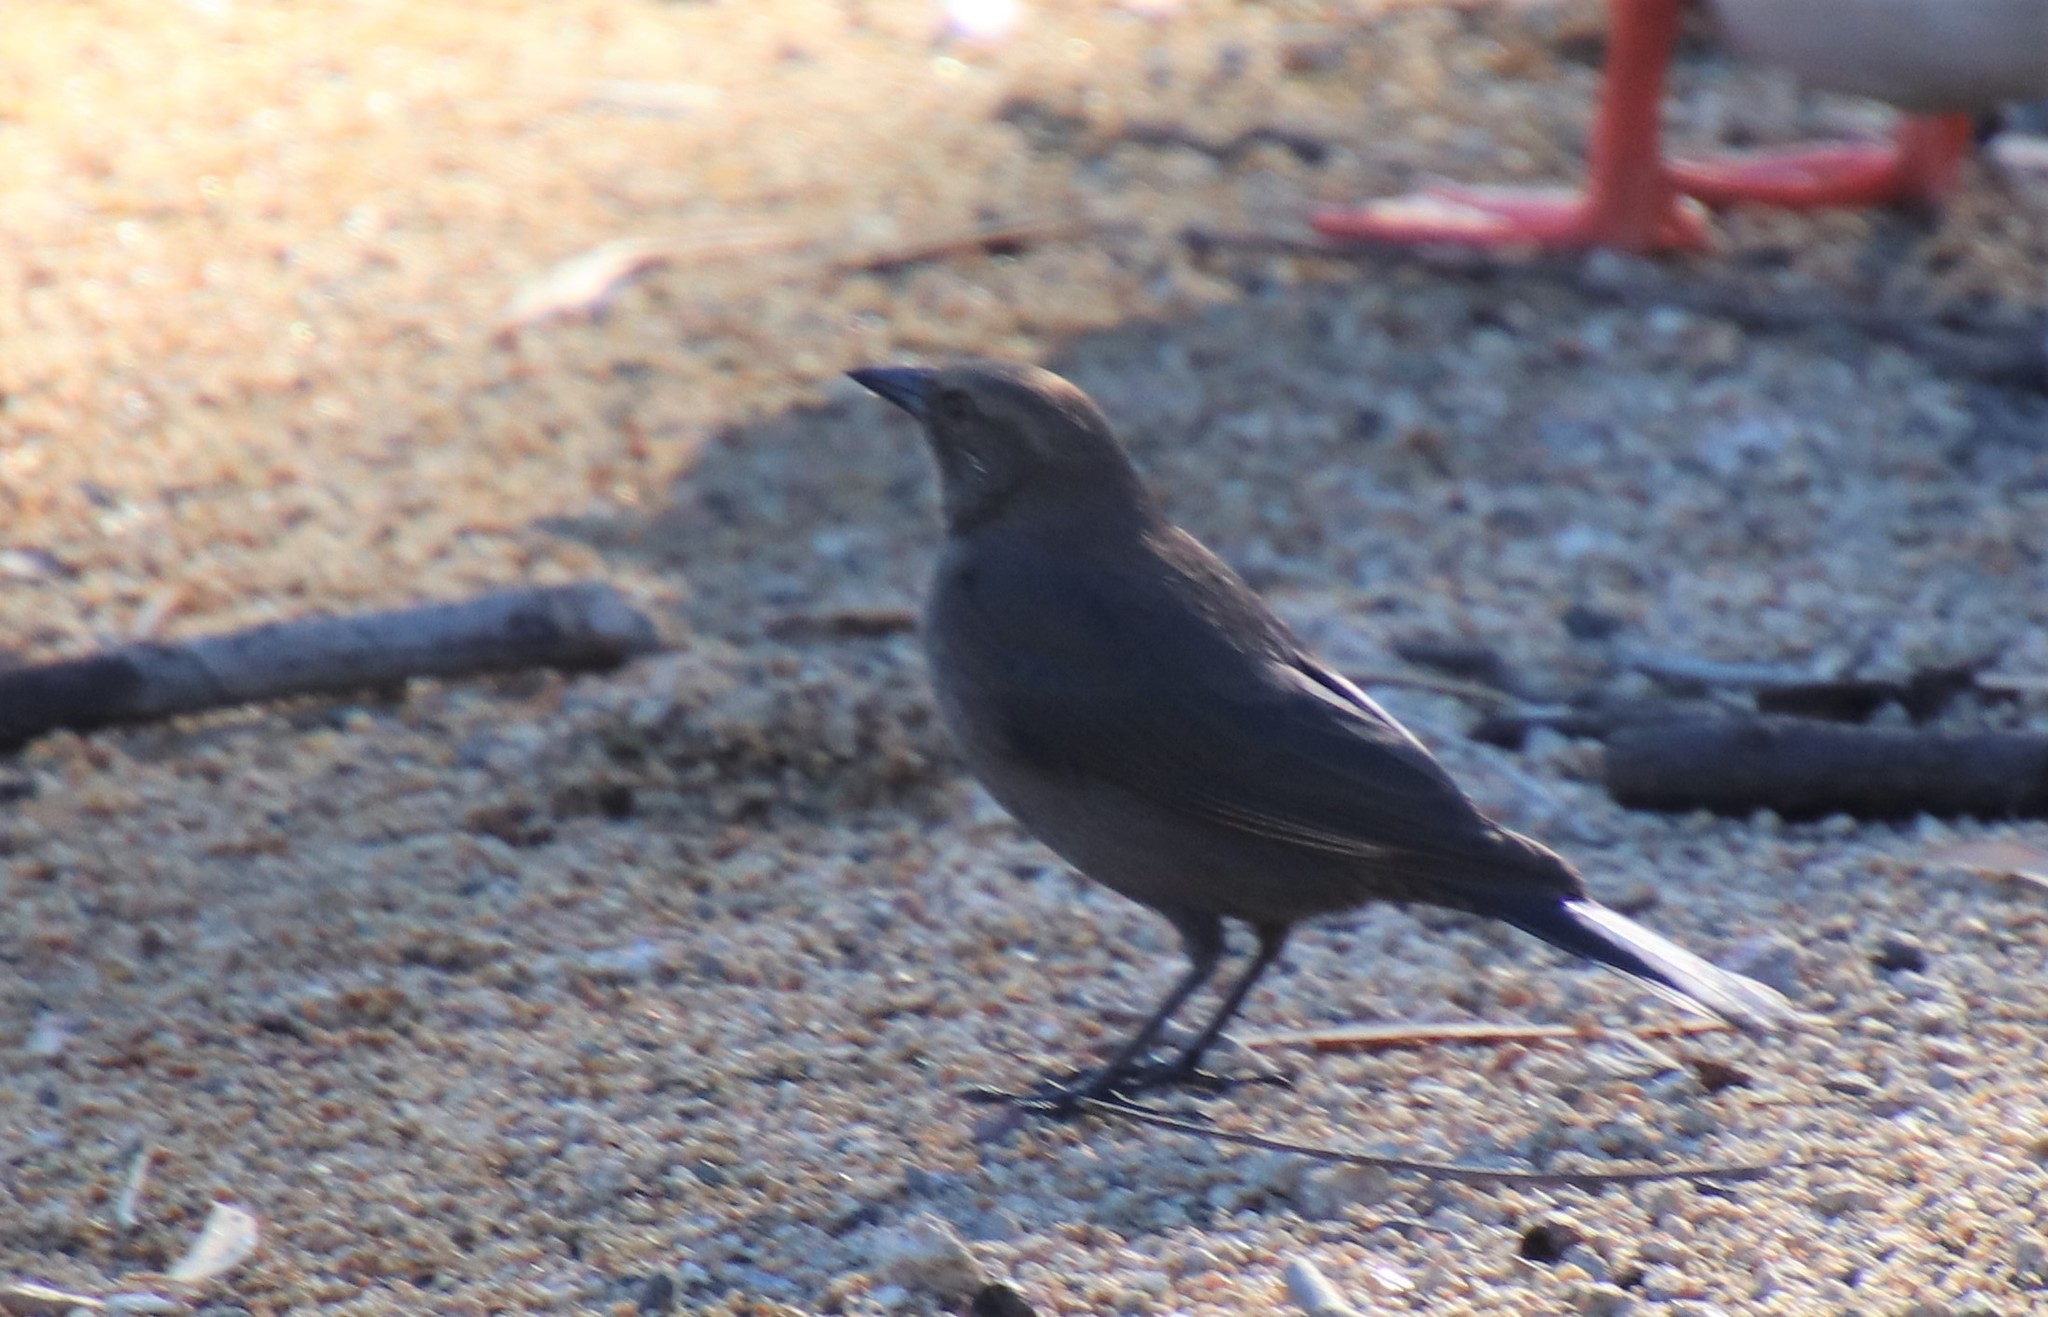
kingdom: Animalia
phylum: Chordata
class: Aves
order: Passeriformes
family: Icteridae
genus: Euphagus
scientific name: Euphagus cyanocephalus
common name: Brewer's blackbird
